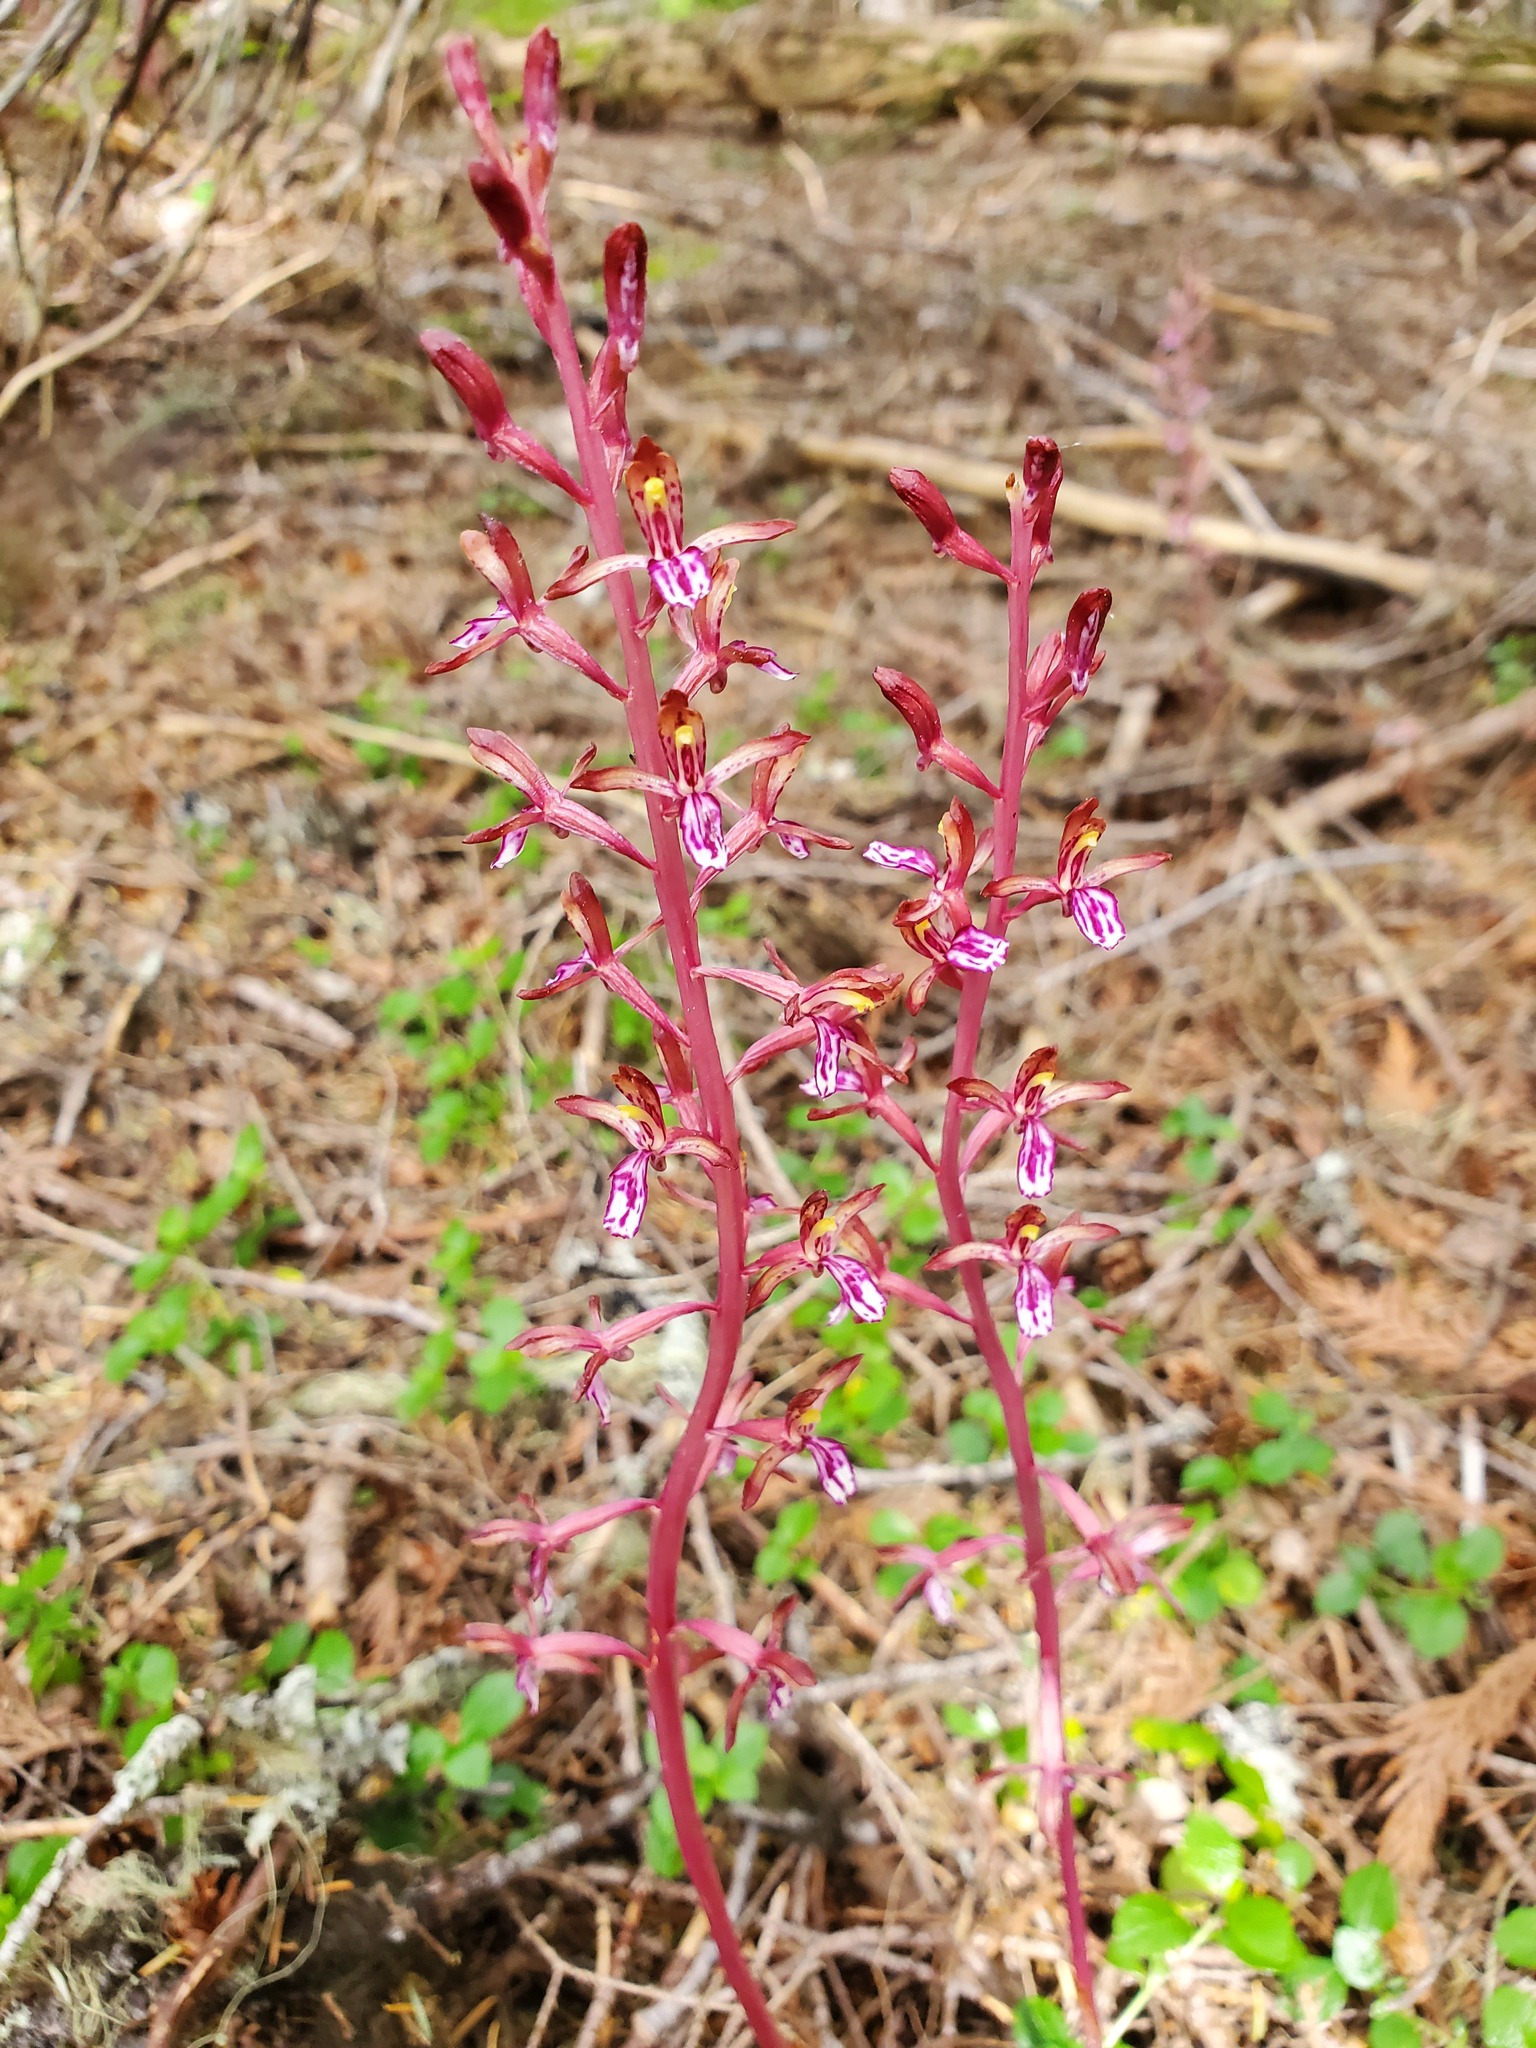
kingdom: Plantae
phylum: Tracheophyta
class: Liliopsida
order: Asparagales
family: Orchidaceae
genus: Corallorhiza
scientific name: Corallorhiza mertensiana
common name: Pacific coralroot
